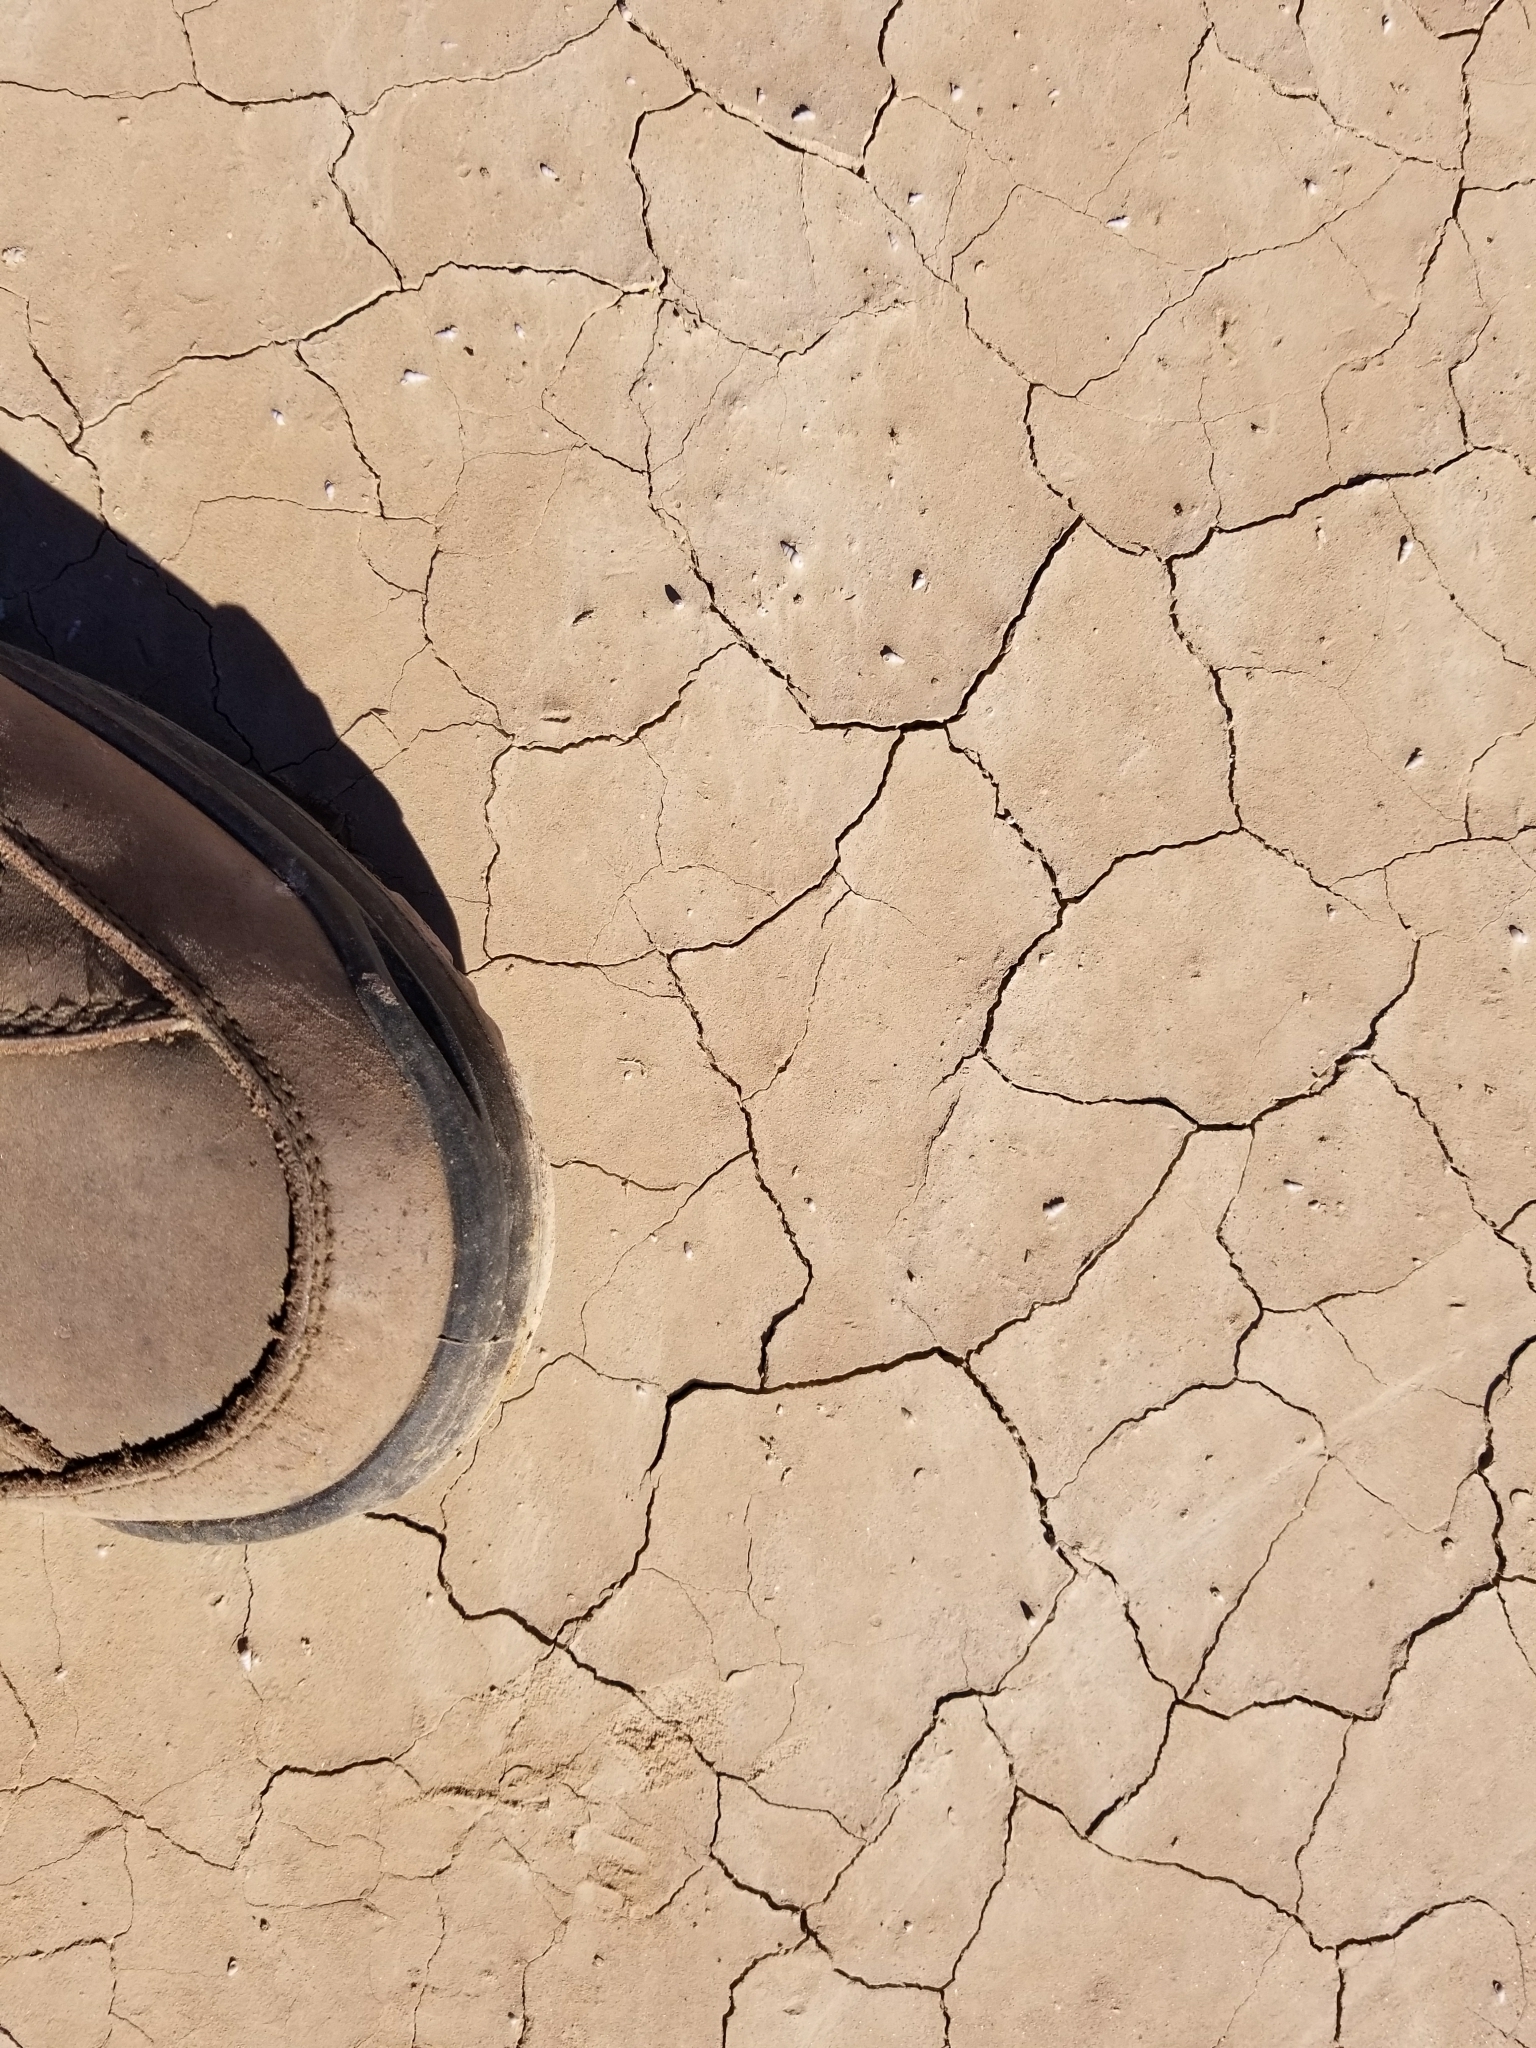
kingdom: Animalia
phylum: Mollusca
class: Gastropoda
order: Littorinimorpha
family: Cochliopidae
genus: Tryonia
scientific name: Tryonia porrecta
